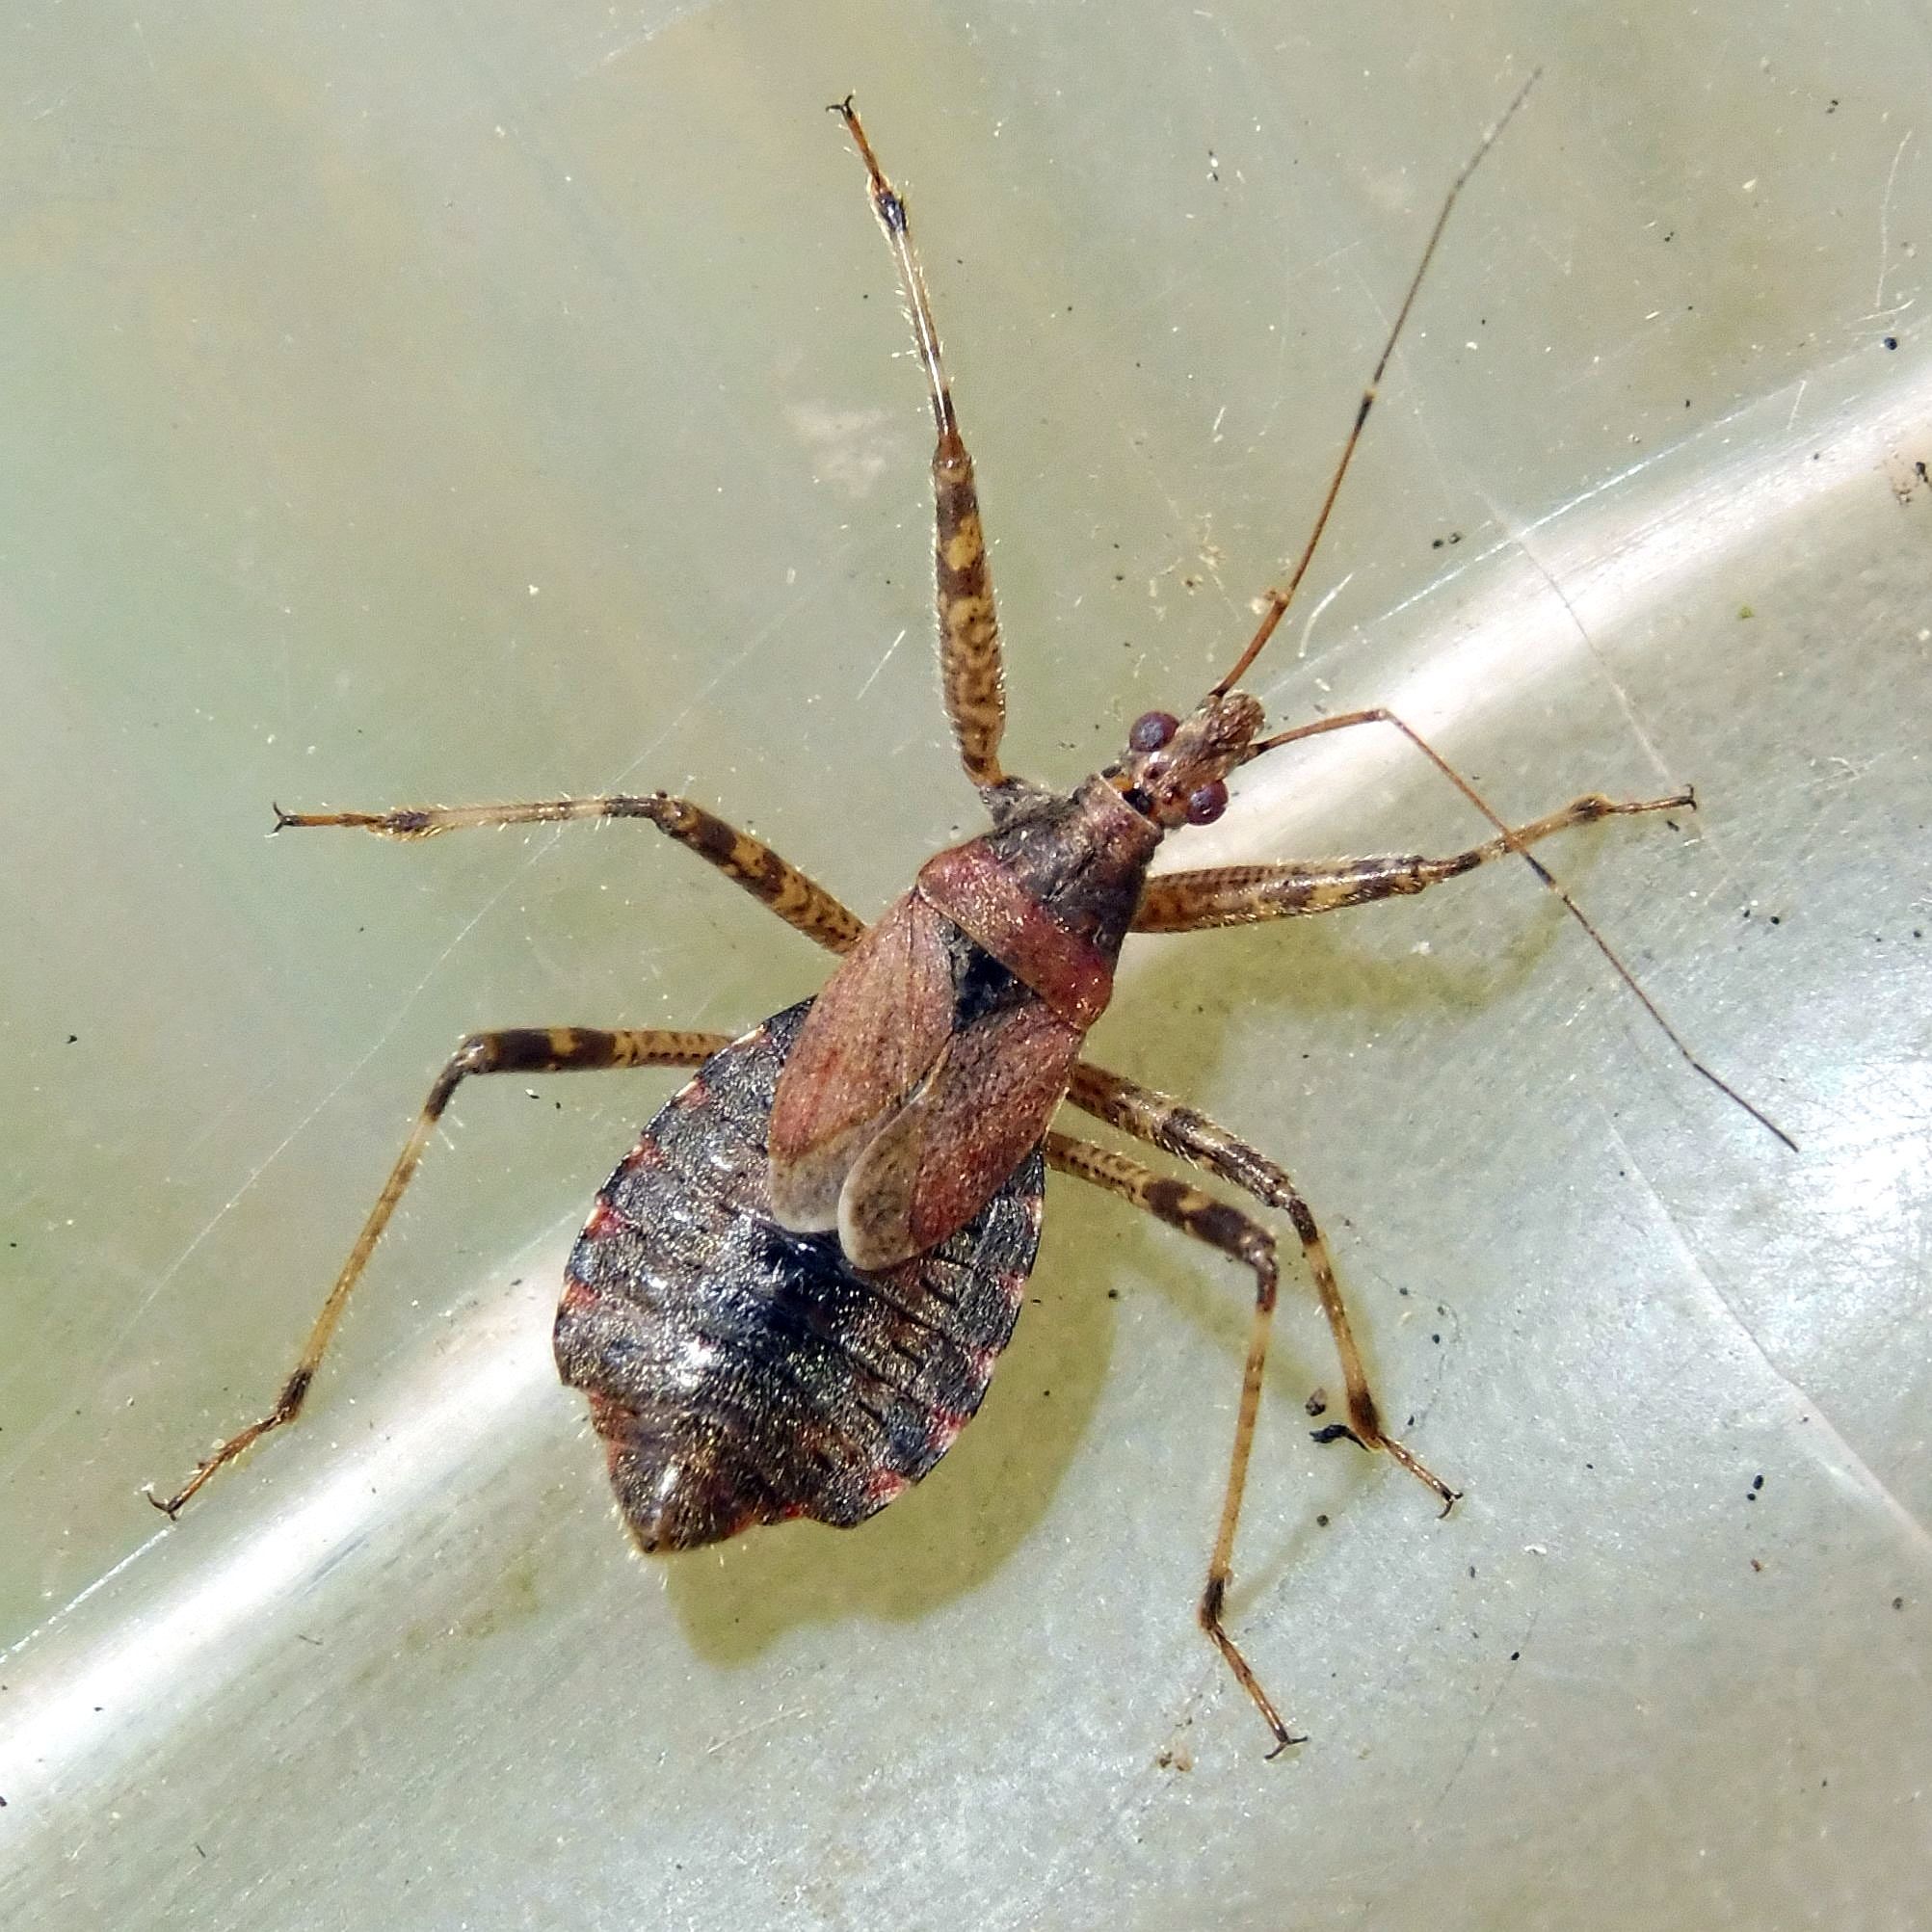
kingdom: Animalia
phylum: Arthropoda
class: Insecta
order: Hemiptera
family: Nabidae
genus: Himacerus
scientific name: Himacerus apterus
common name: Tree damsel bug
